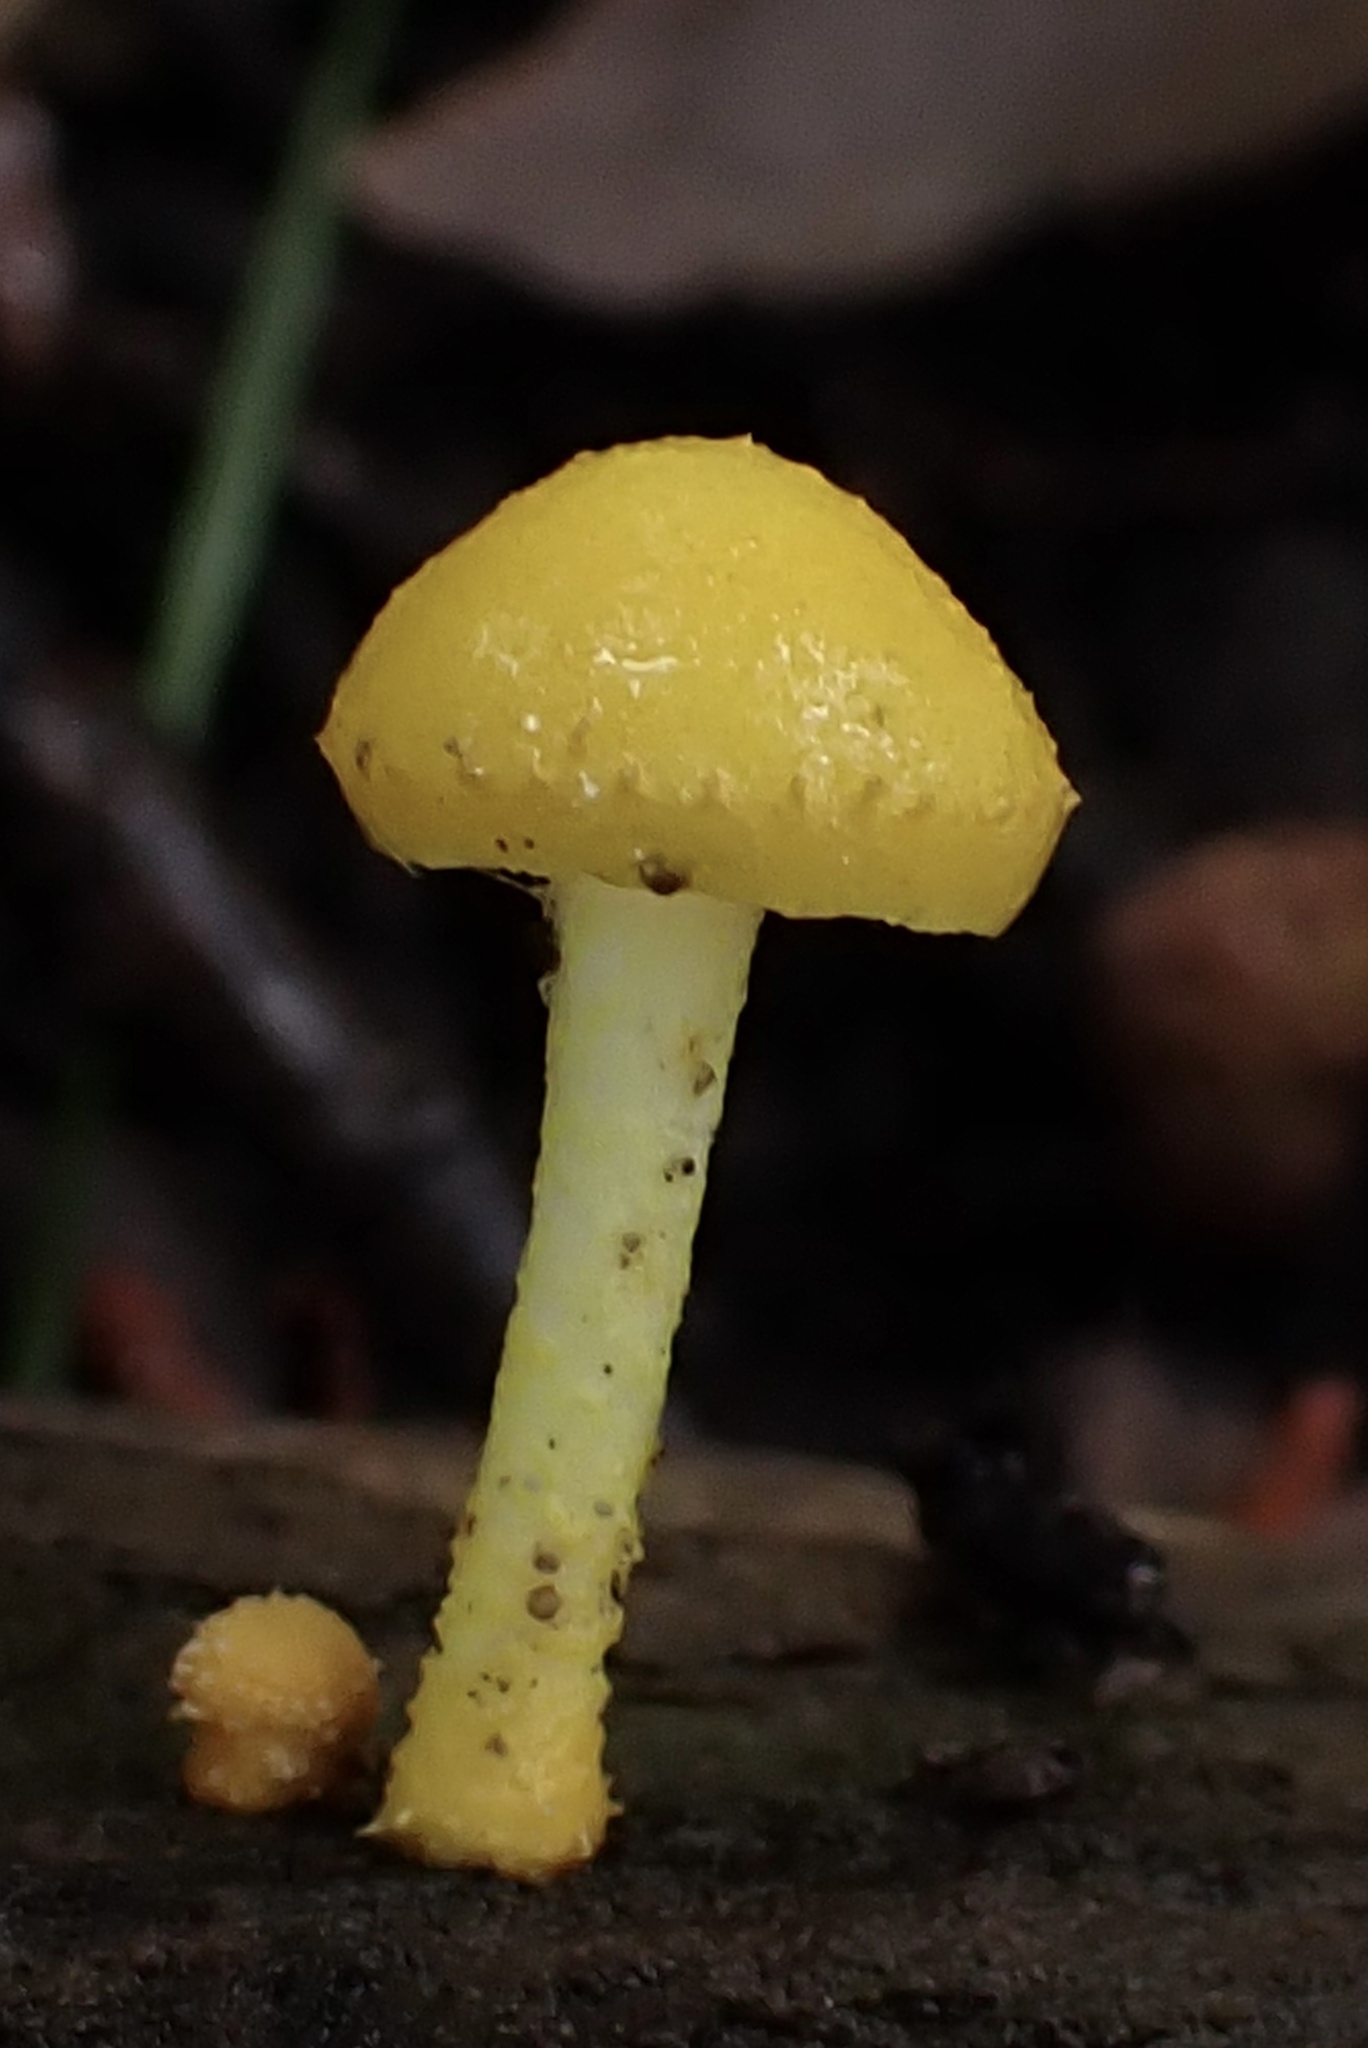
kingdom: Fungi
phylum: Basidiomycota
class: Agaricomycetes
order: Agaricales
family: Physalacriaceae
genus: Cyptotrama
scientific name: Cyptotrama chrysopepla
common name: Golden coincap
